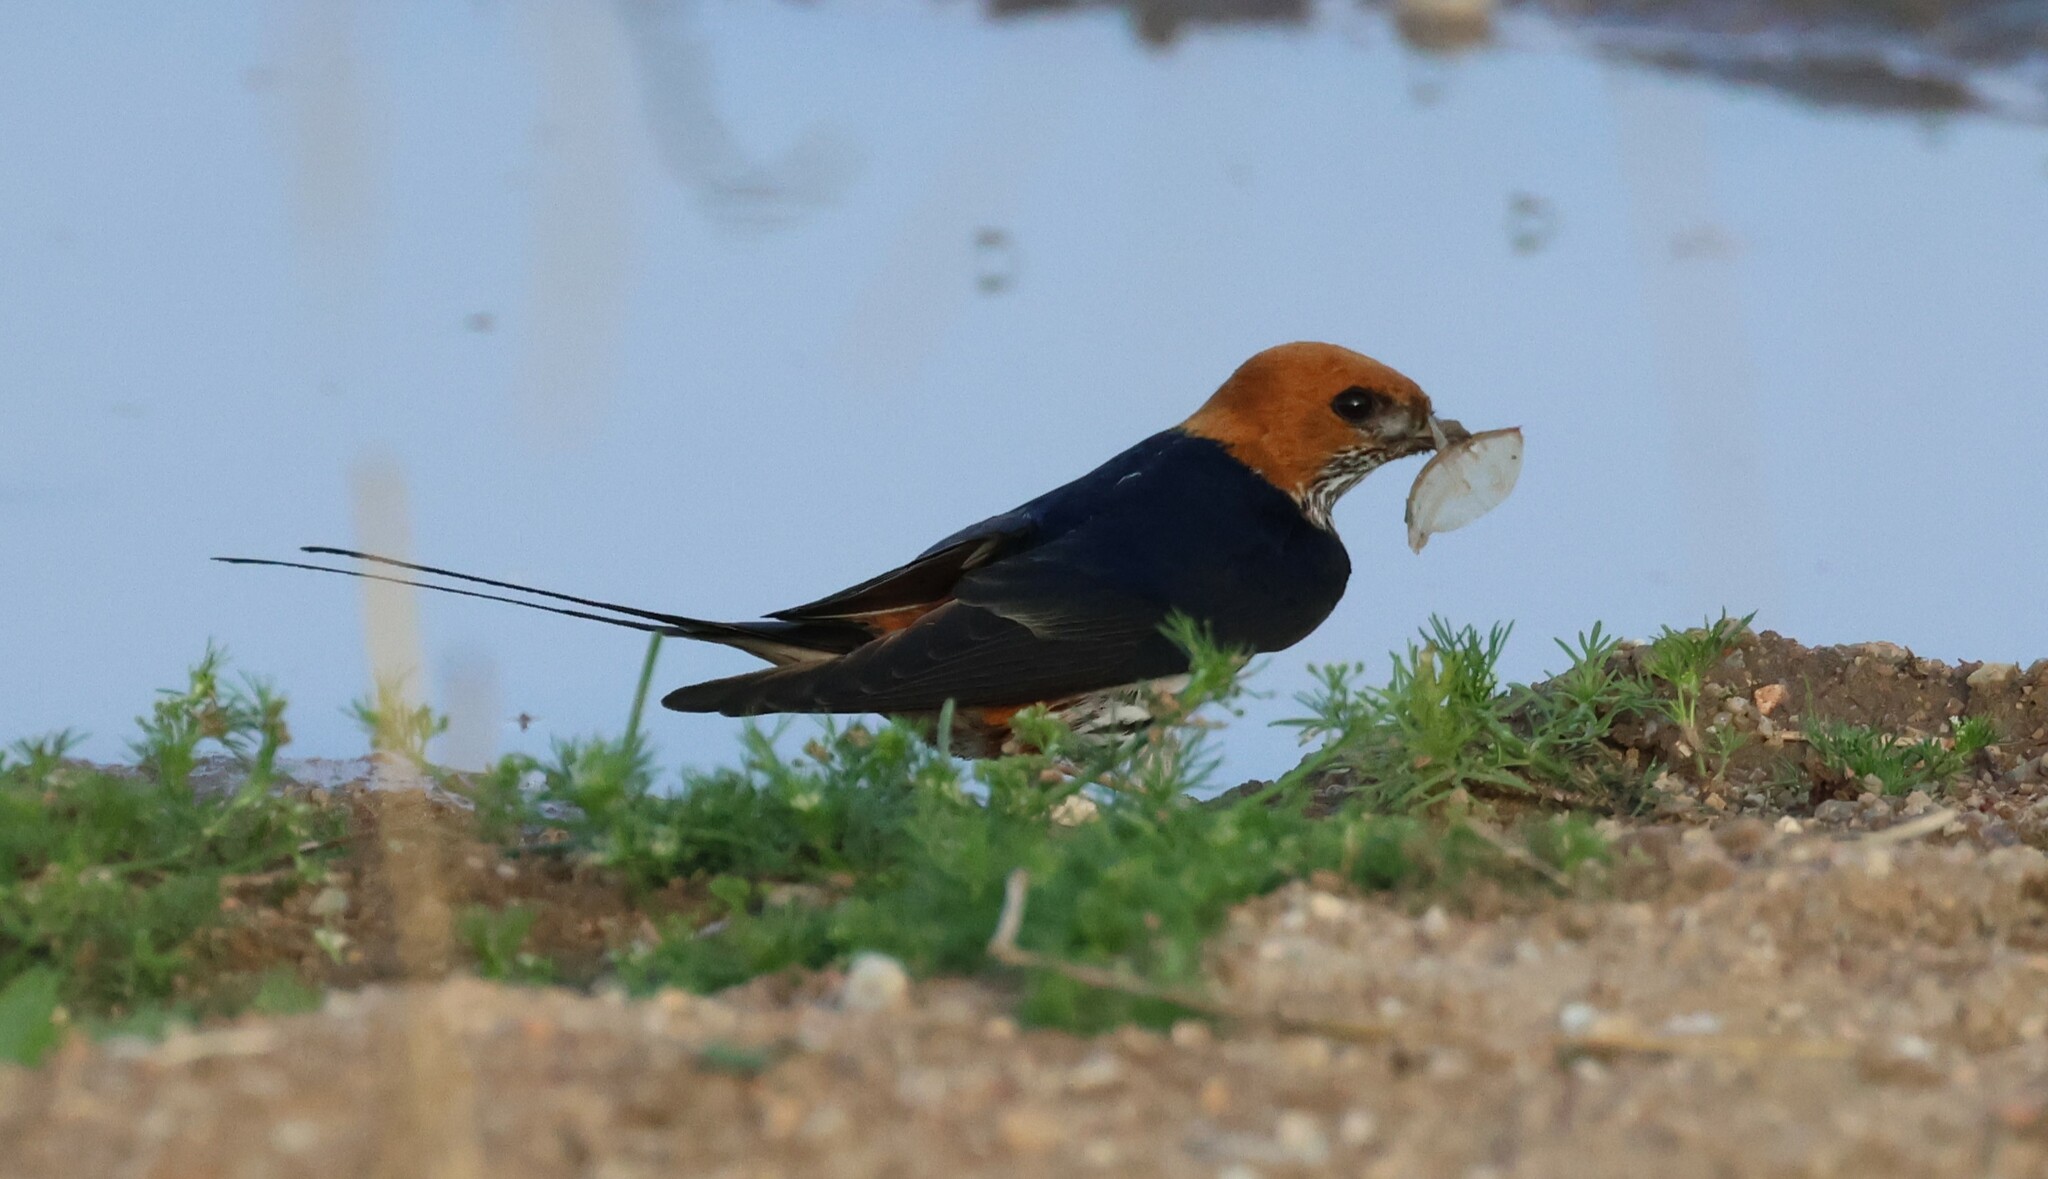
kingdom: Animalia
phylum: Chordata
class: Aves
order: Passeriformes
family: Hirundinidae
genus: Cecropis
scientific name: Cecropis abyssinica
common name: Lesser striped-swallow
